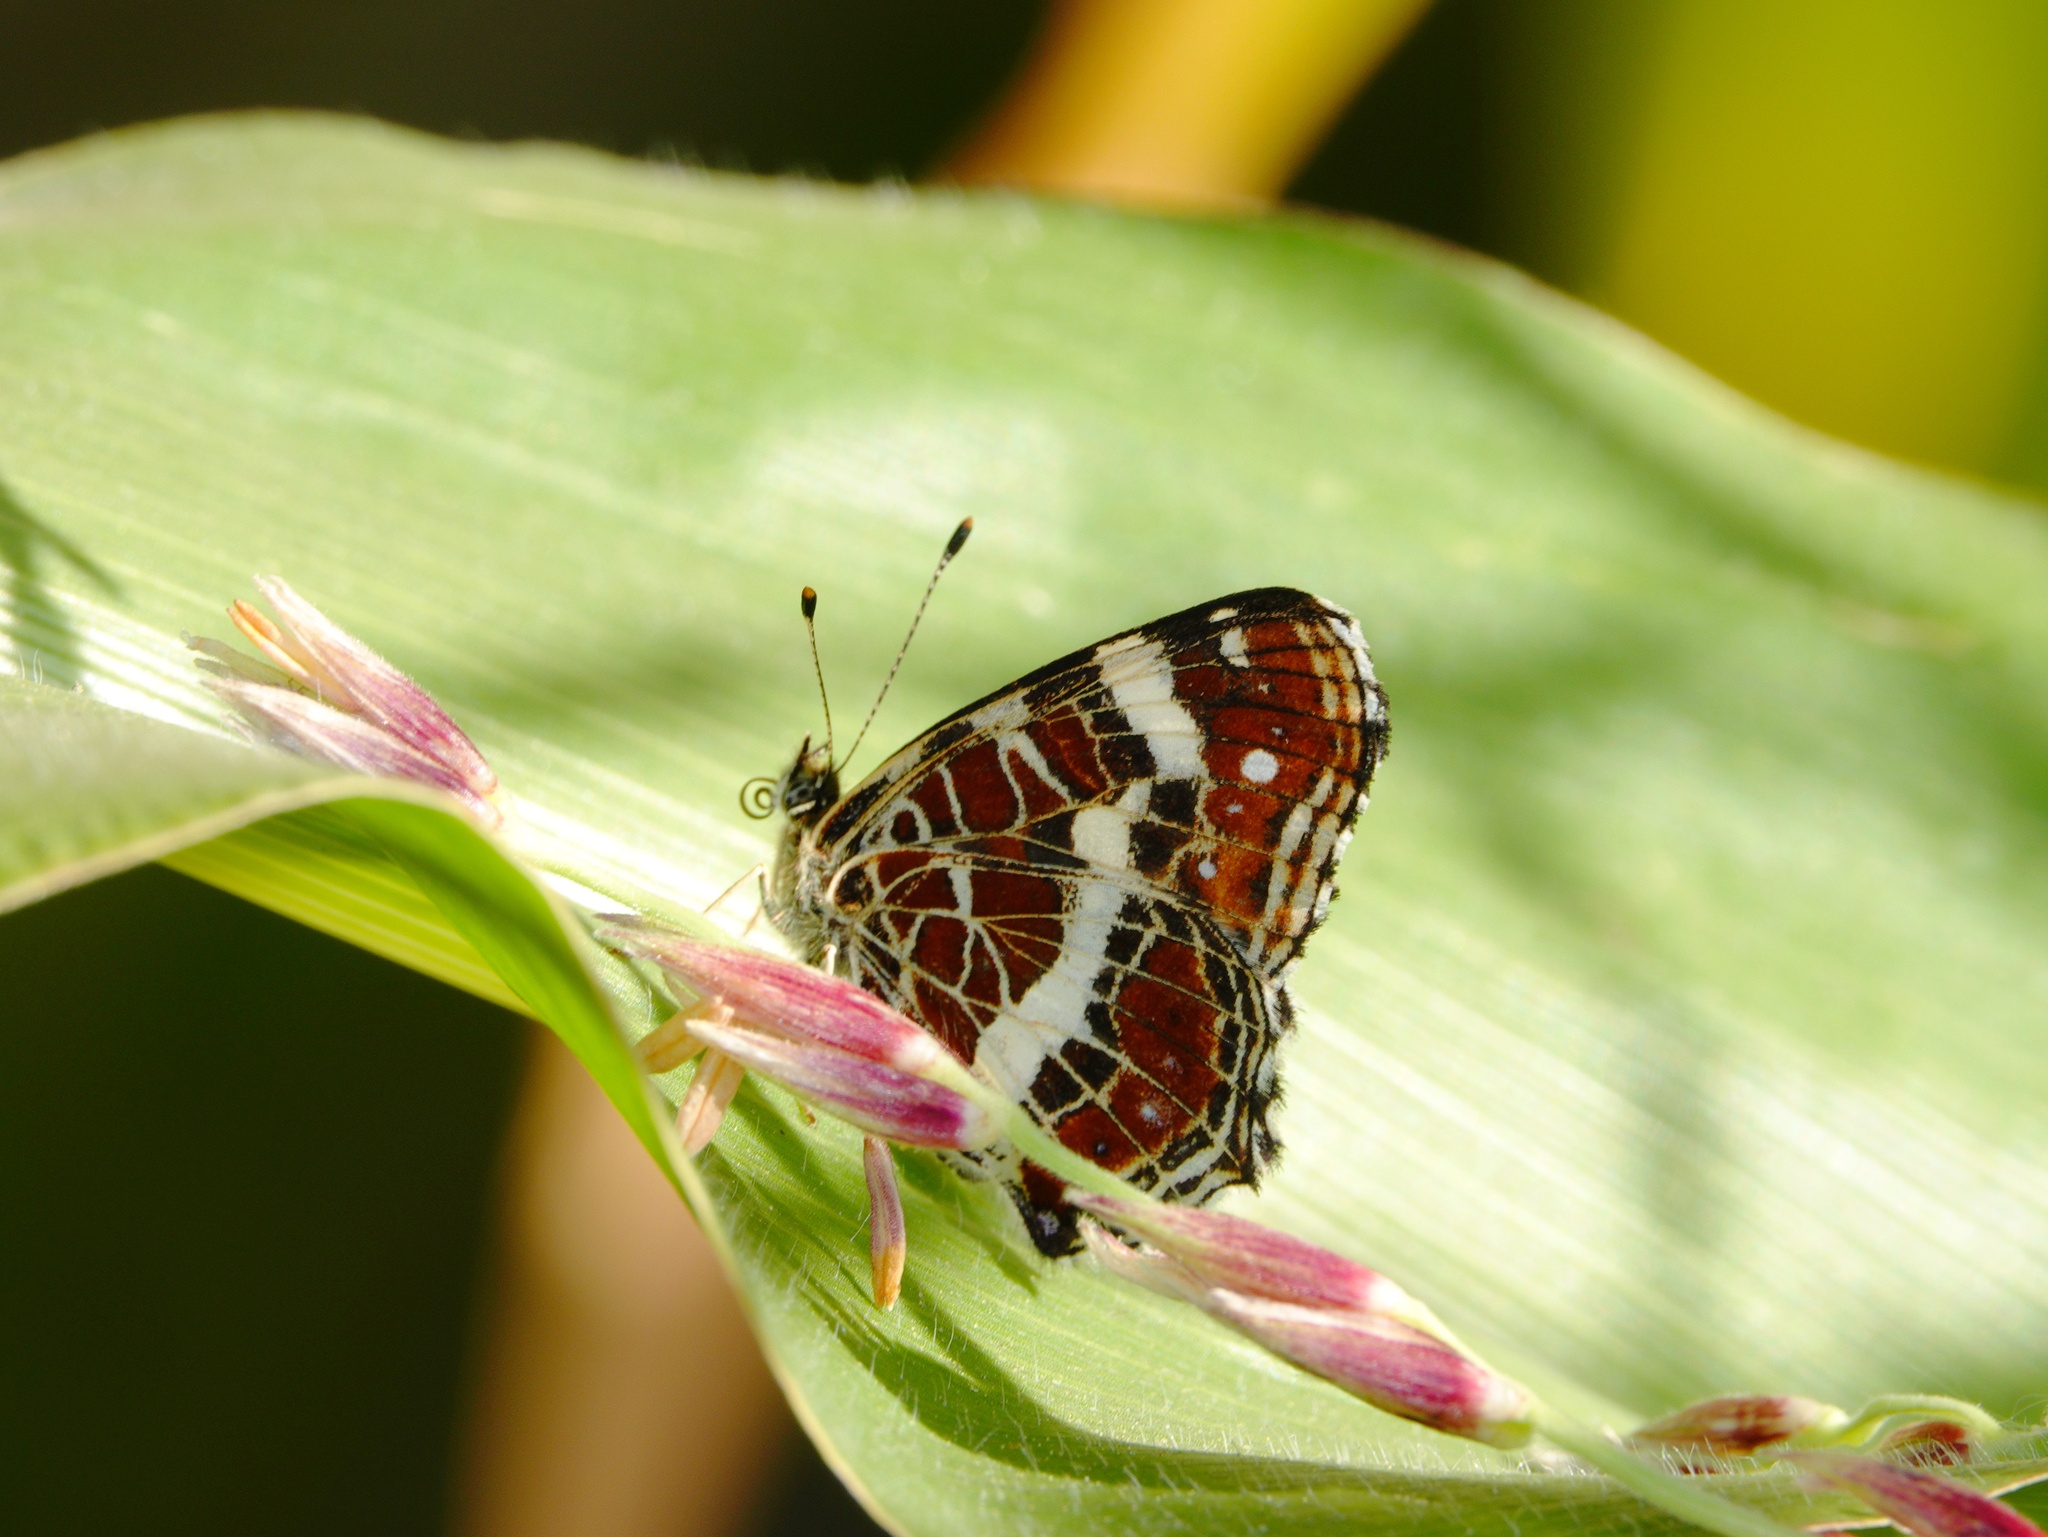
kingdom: Animalia
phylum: Arthropoda
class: Insecta
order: Lepidoptera
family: Nymphalidae
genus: Araschnia
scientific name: Araschnia levana
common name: Map butterfly
